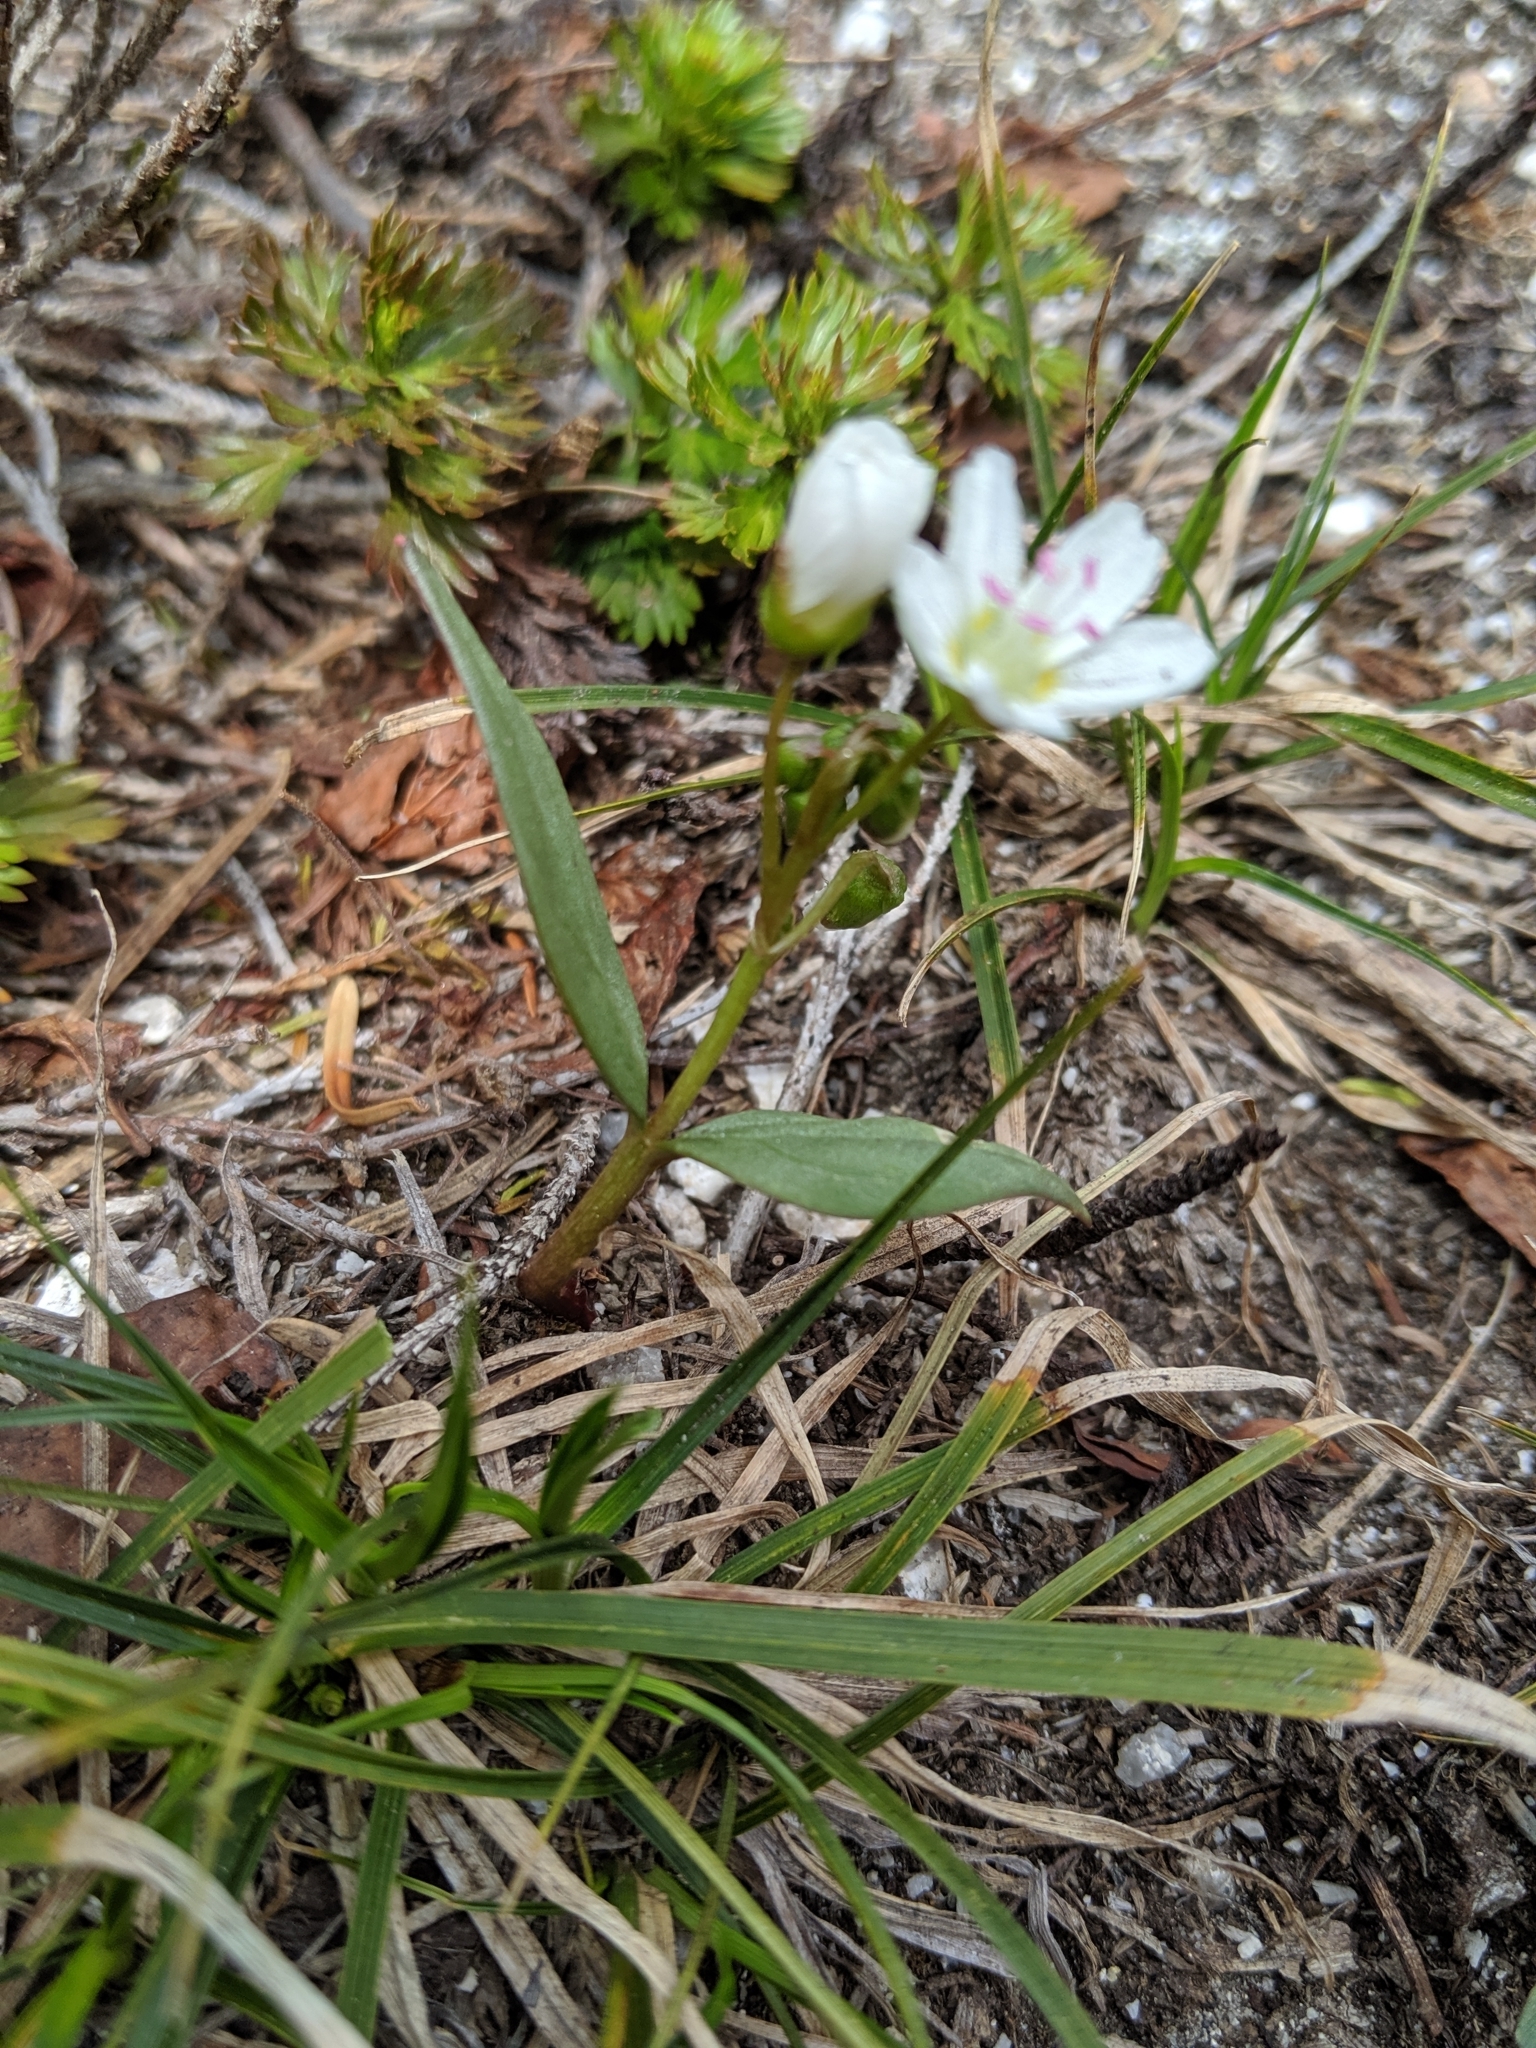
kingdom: Plantae
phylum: Tracheophyta
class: Magnoliopsida
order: Caryophyllales
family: Montiaceae
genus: Claytonia
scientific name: Claytonia lanceolata
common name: Western spring-beauty
